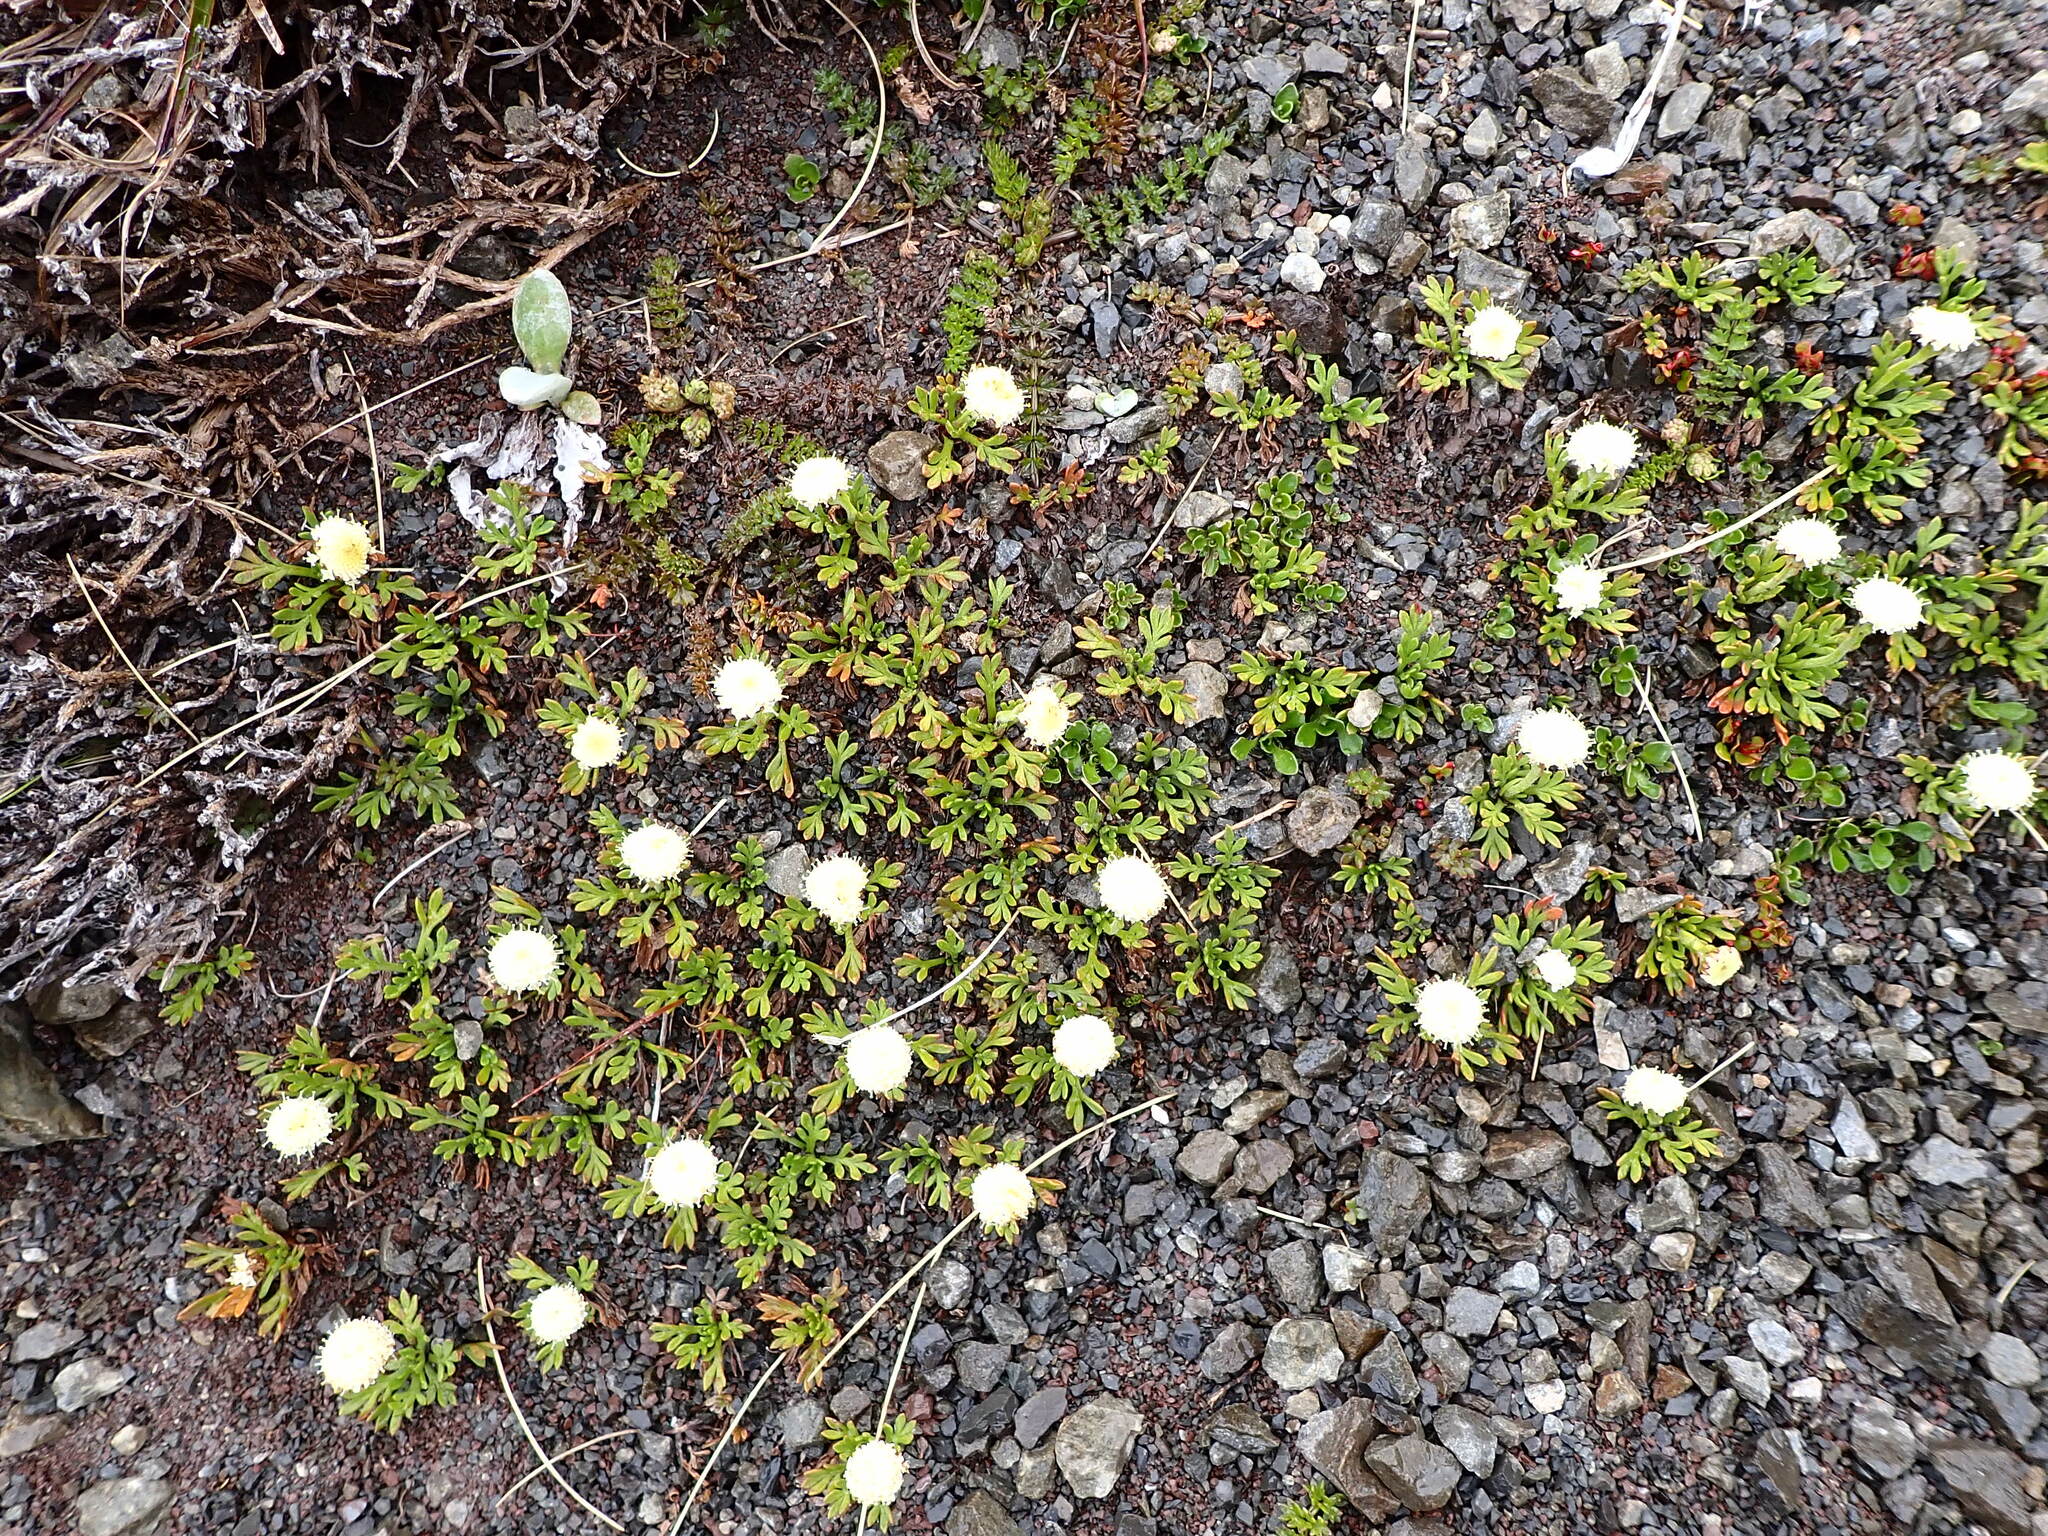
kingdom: Plantae
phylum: Tracheophyta
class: Magnoliopsida
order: Asterales
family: Asteraceae
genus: Leptinella
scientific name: Leptinella pyrethrifolia
